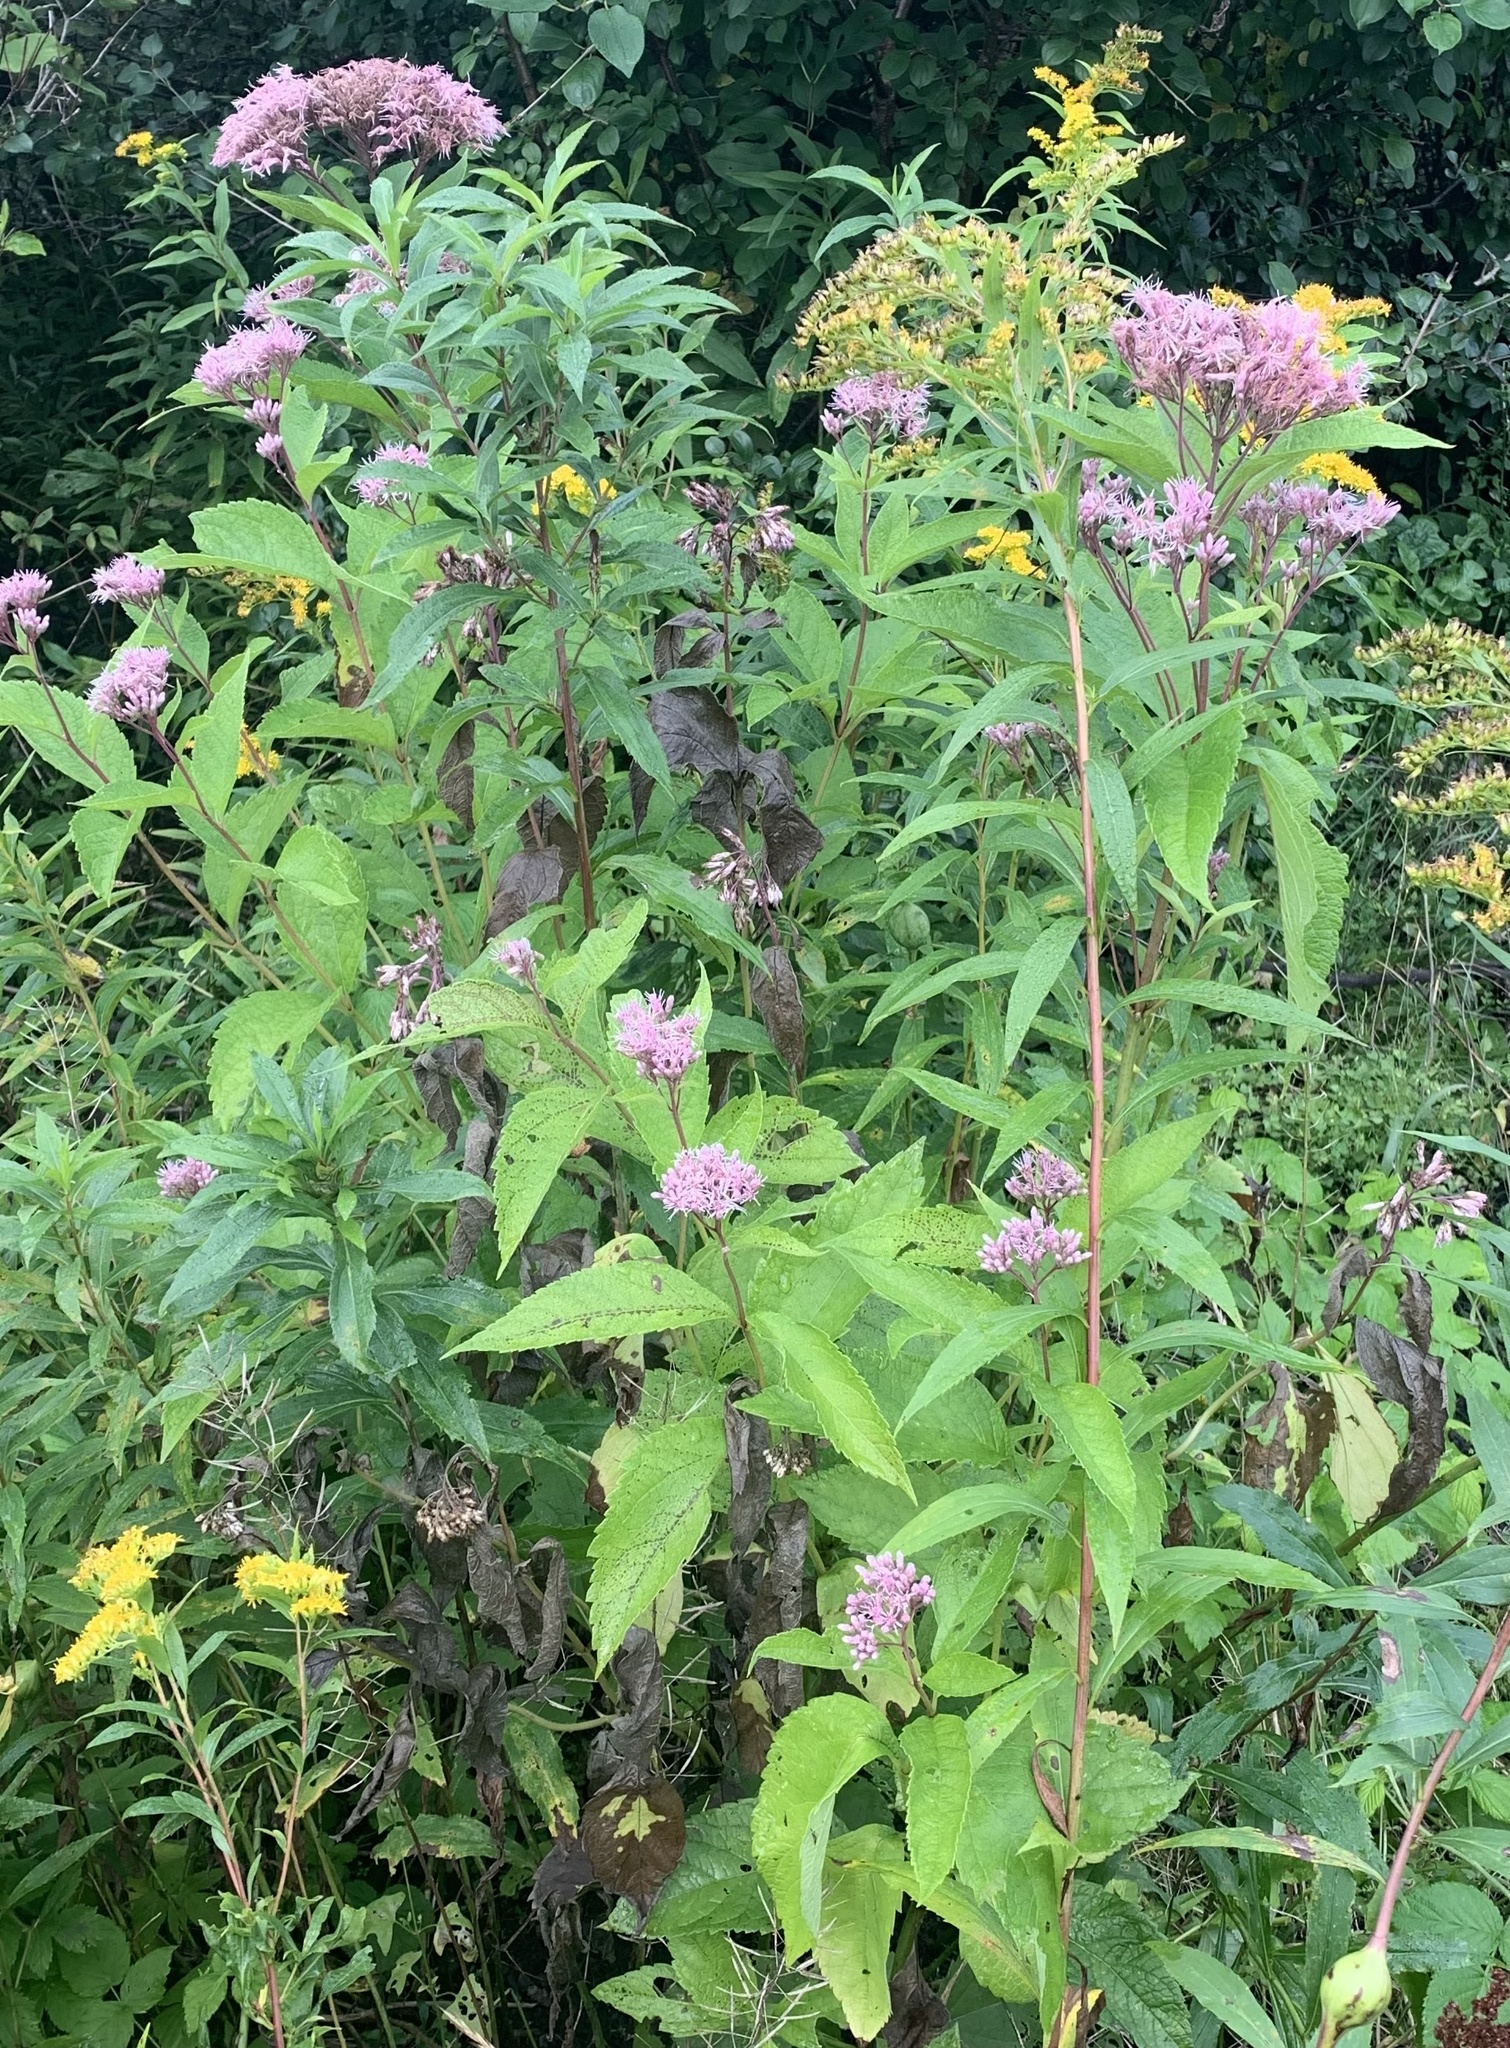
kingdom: Plantae
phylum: Tracheophyta
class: Magnoliopsida
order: Asterales
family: Asteraceae
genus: Eutrochium
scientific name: Eutrochium maculatum
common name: Spotted joe pye weed
